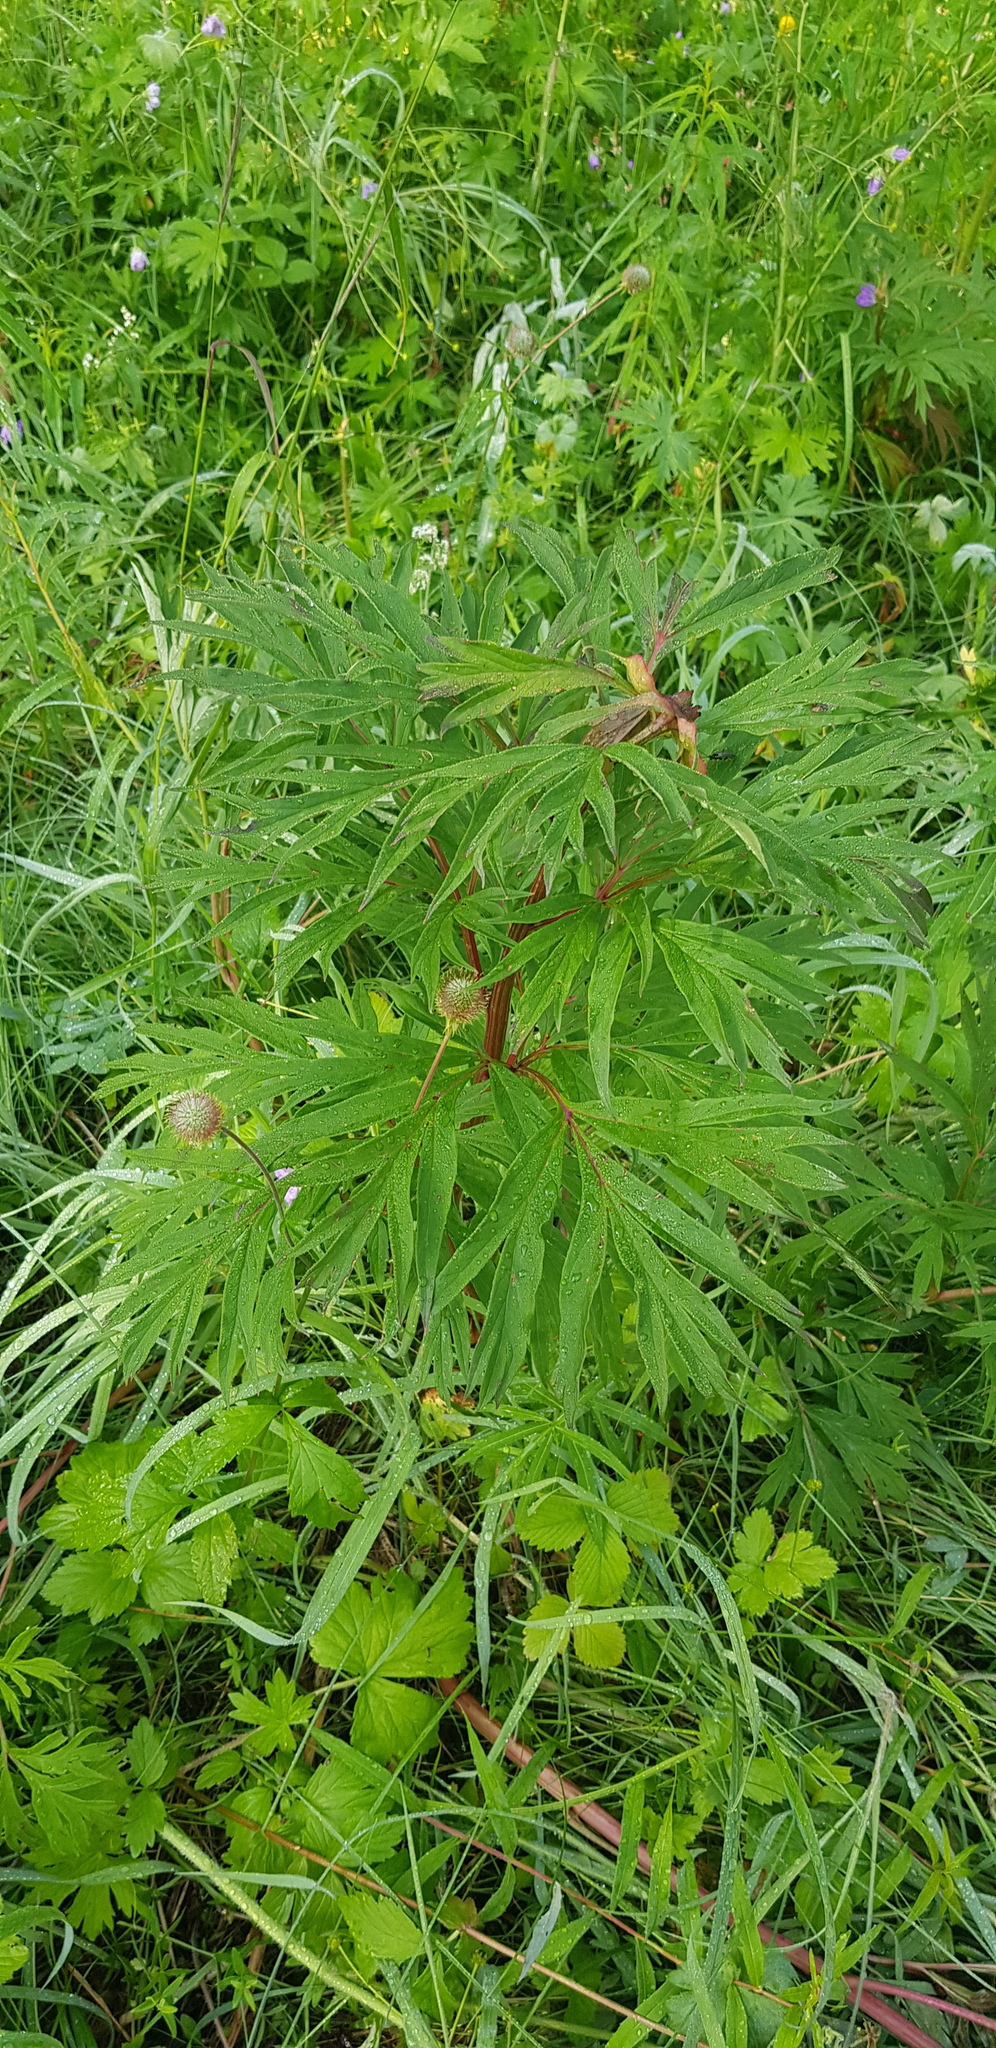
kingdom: Plantae
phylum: Tracheophyta
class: Magnoliopsida
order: Saxifragales
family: Paeoniaceae
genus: Paeonia
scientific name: Paeonia anomala
